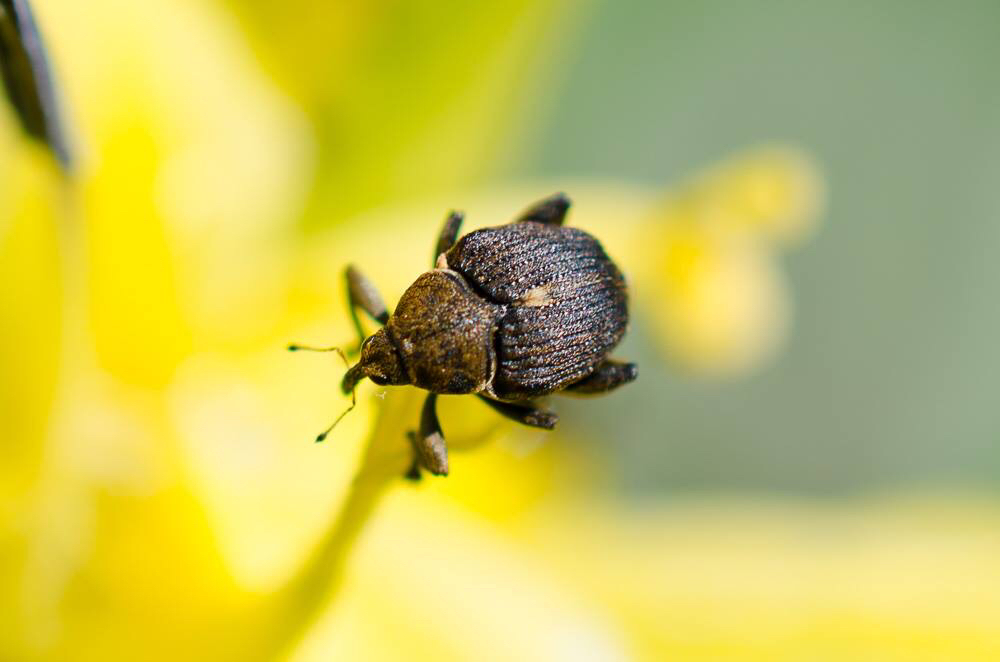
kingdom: Animalia
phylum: Arthropoda
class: Insecta
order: Coleoptera
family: Curculionidae
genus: Mononychus
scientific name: Mononychus punctumalbum
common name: Iris weevil
